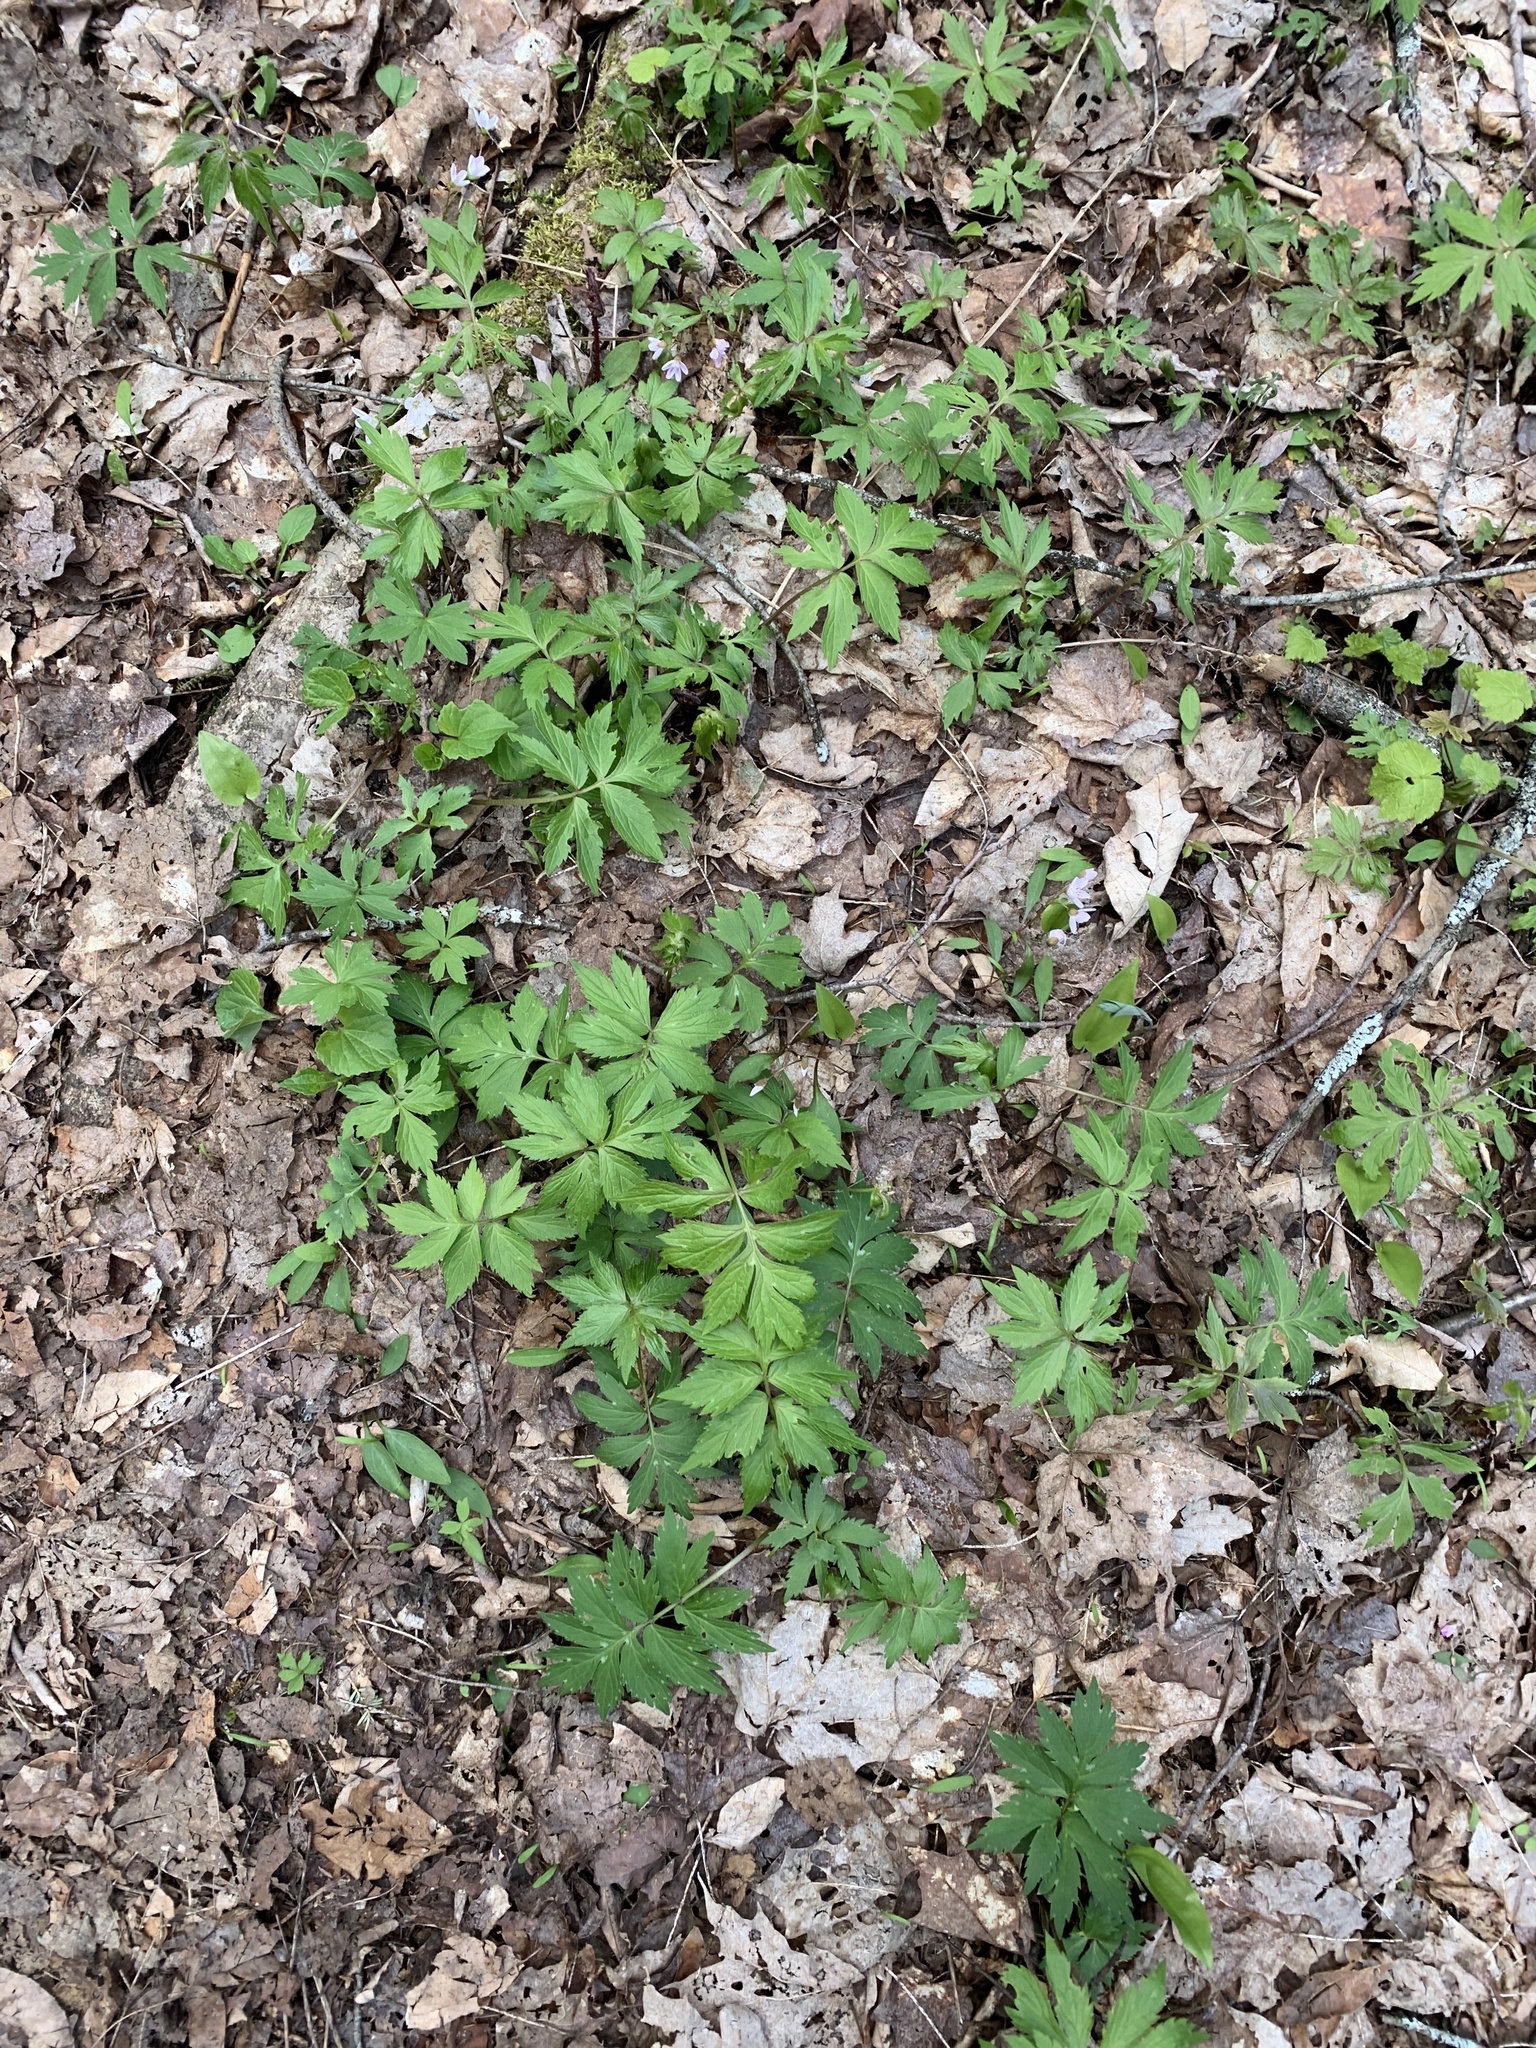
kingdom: Plantae
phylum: Tracheophyta
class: Magnoliopsida
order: Boraginales
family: Hydrophyllaceae
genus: Hydrophyllum
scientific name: Hydrophyllum virginianum
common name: Virginia waterleaf
